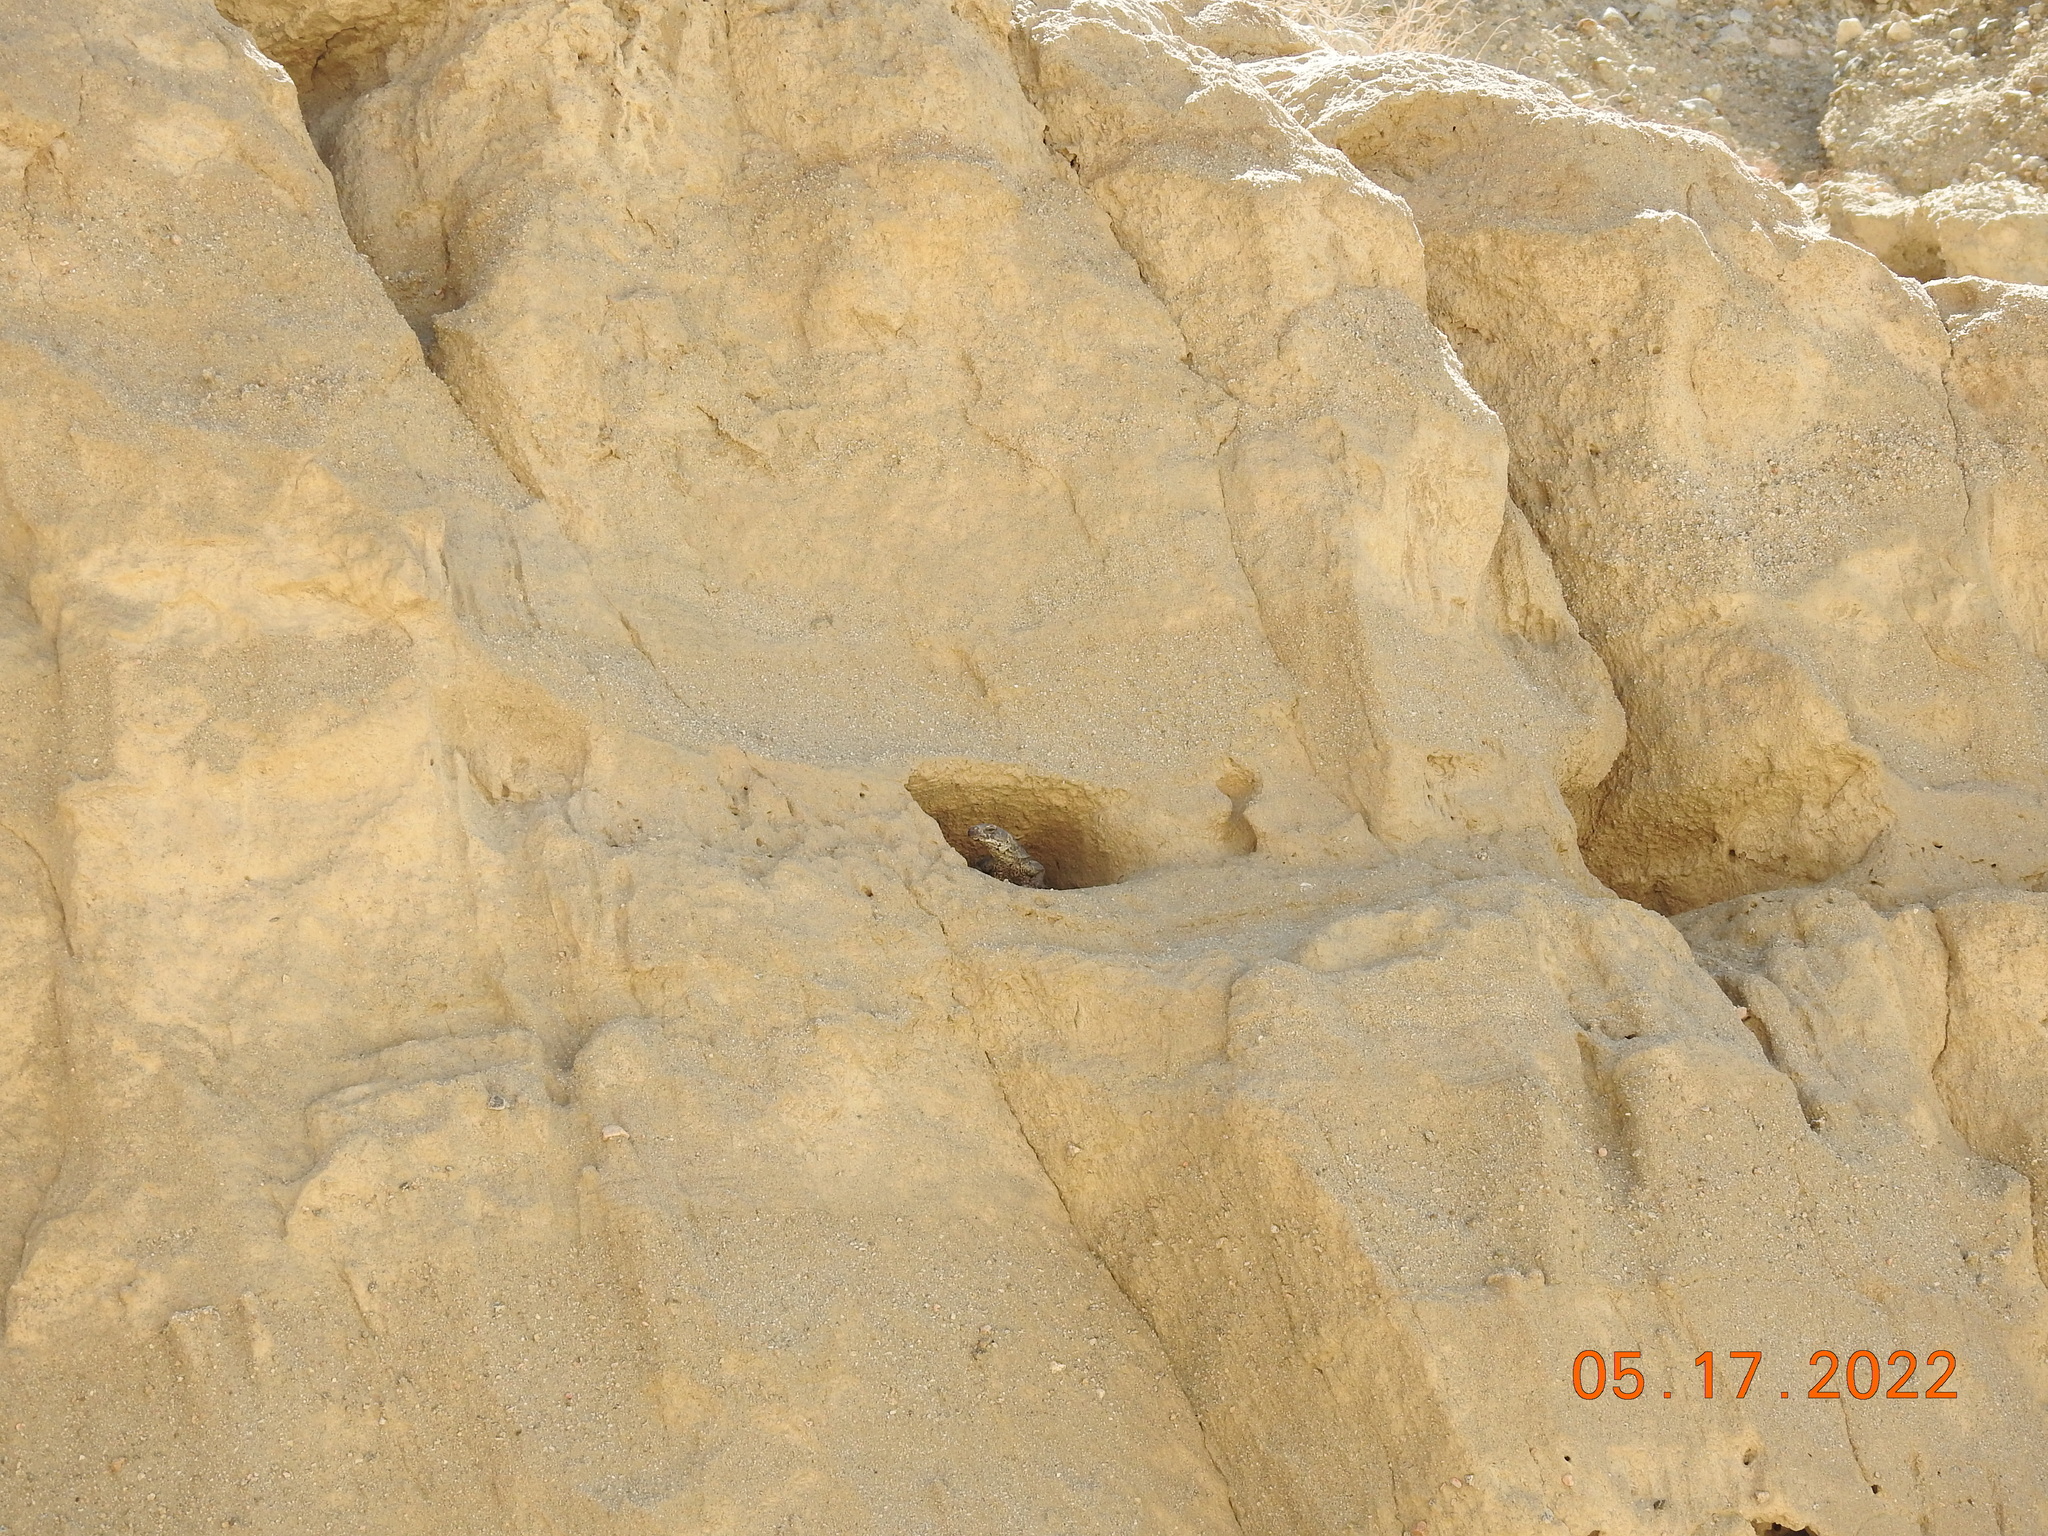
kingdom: Animalia
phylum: Chordata
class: Squamata
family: Iguanidae
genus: Sauromalus
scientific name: Sauromalus ater
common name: Northern chuckwalla
